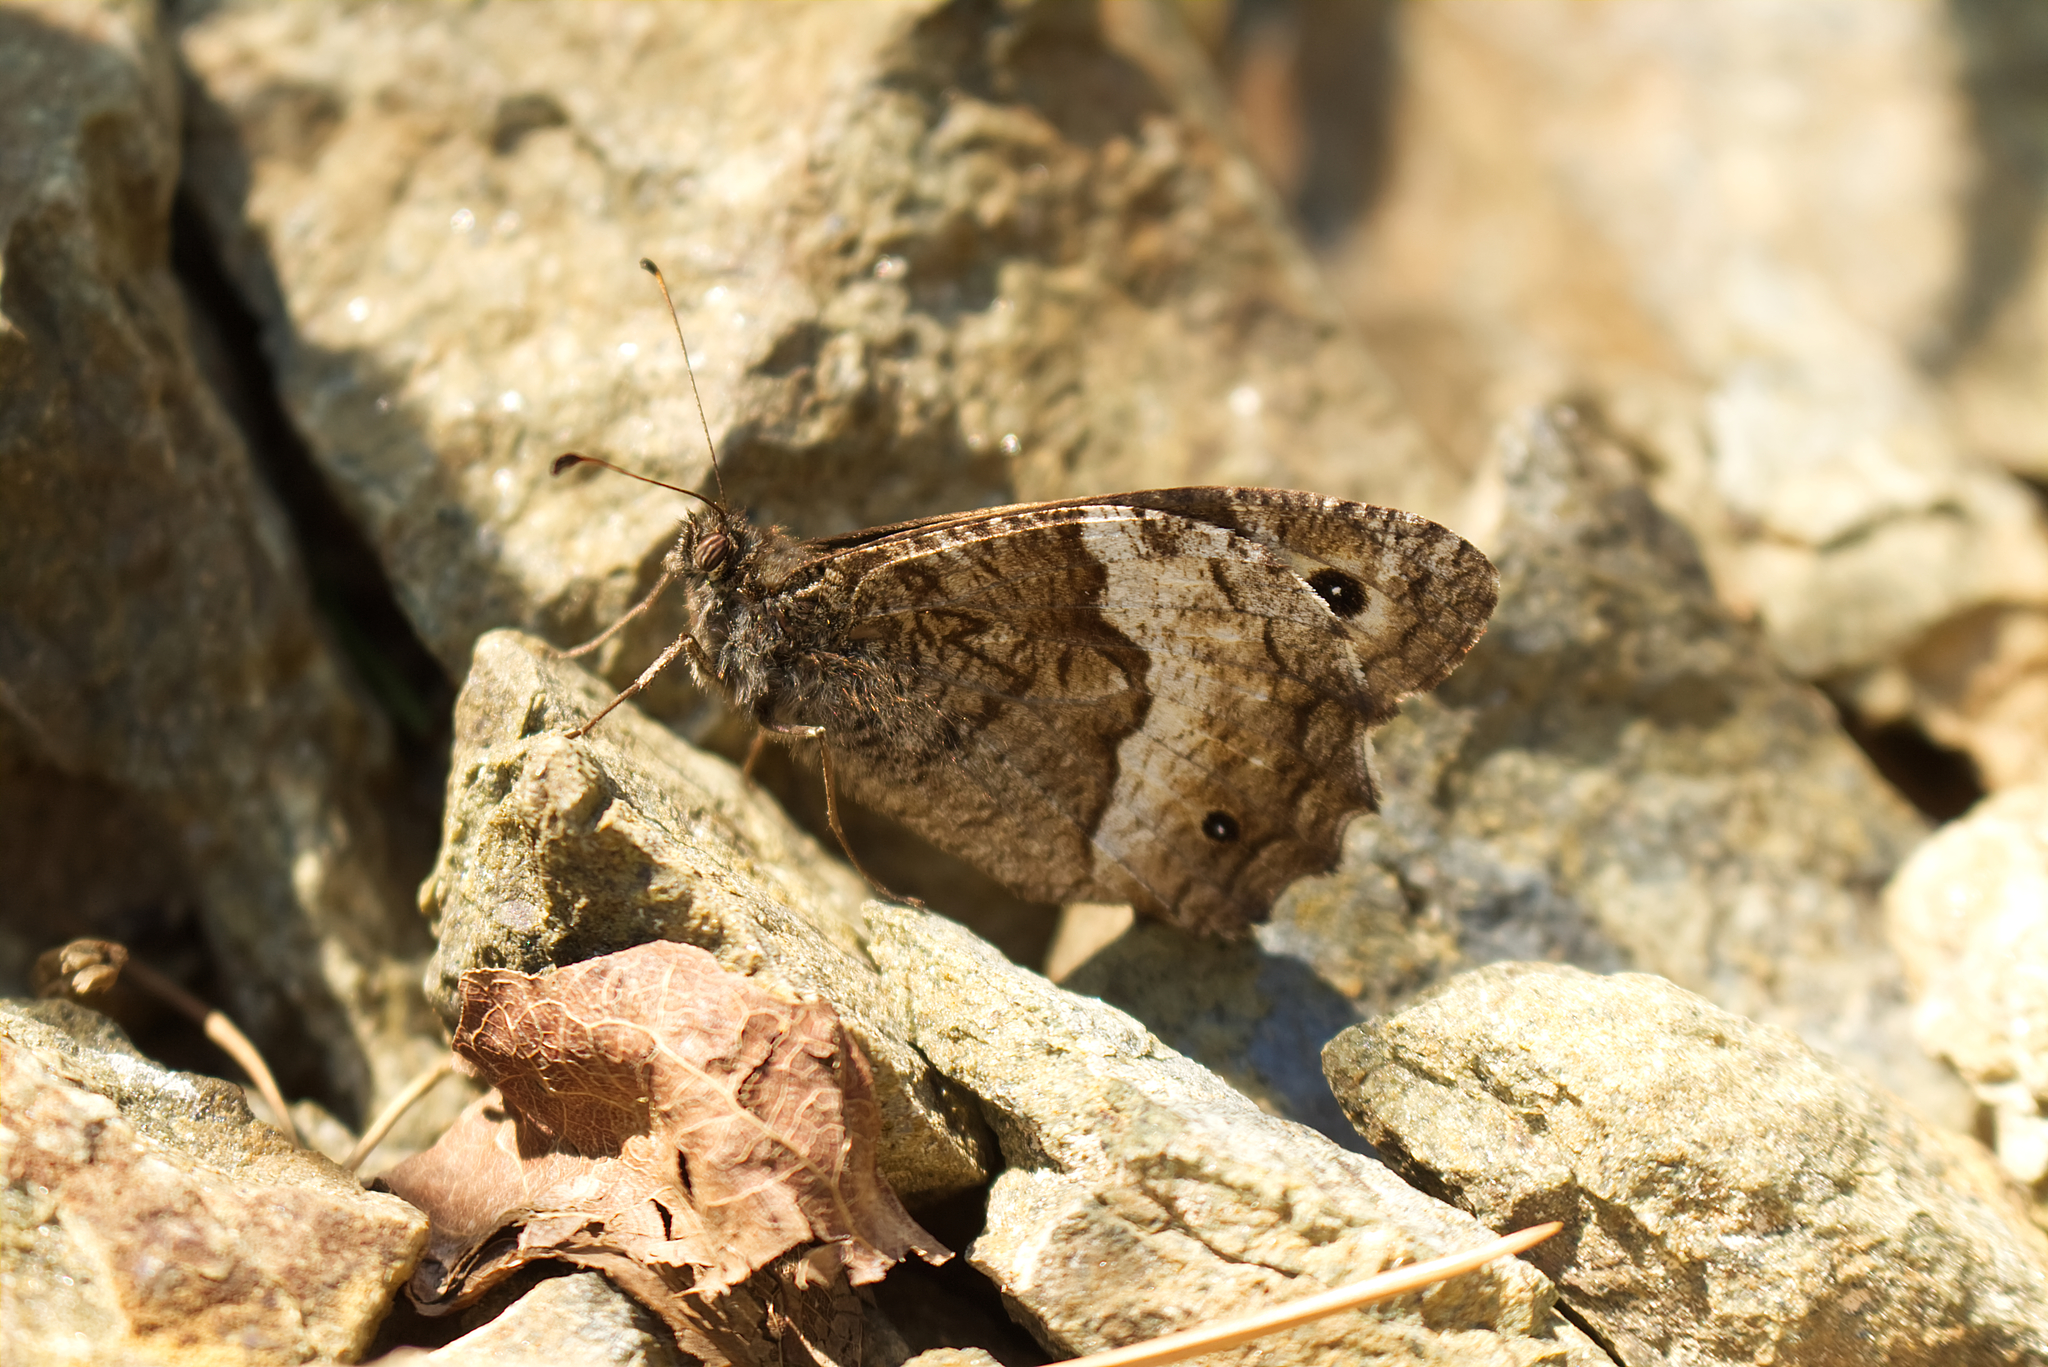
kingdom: Animalia
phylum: Arthropoda
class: Insecta
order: Lepidoptera
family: Nymphalidae
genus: Hipparchia
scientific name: Hipparchia fagi
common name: Woodland grayling
